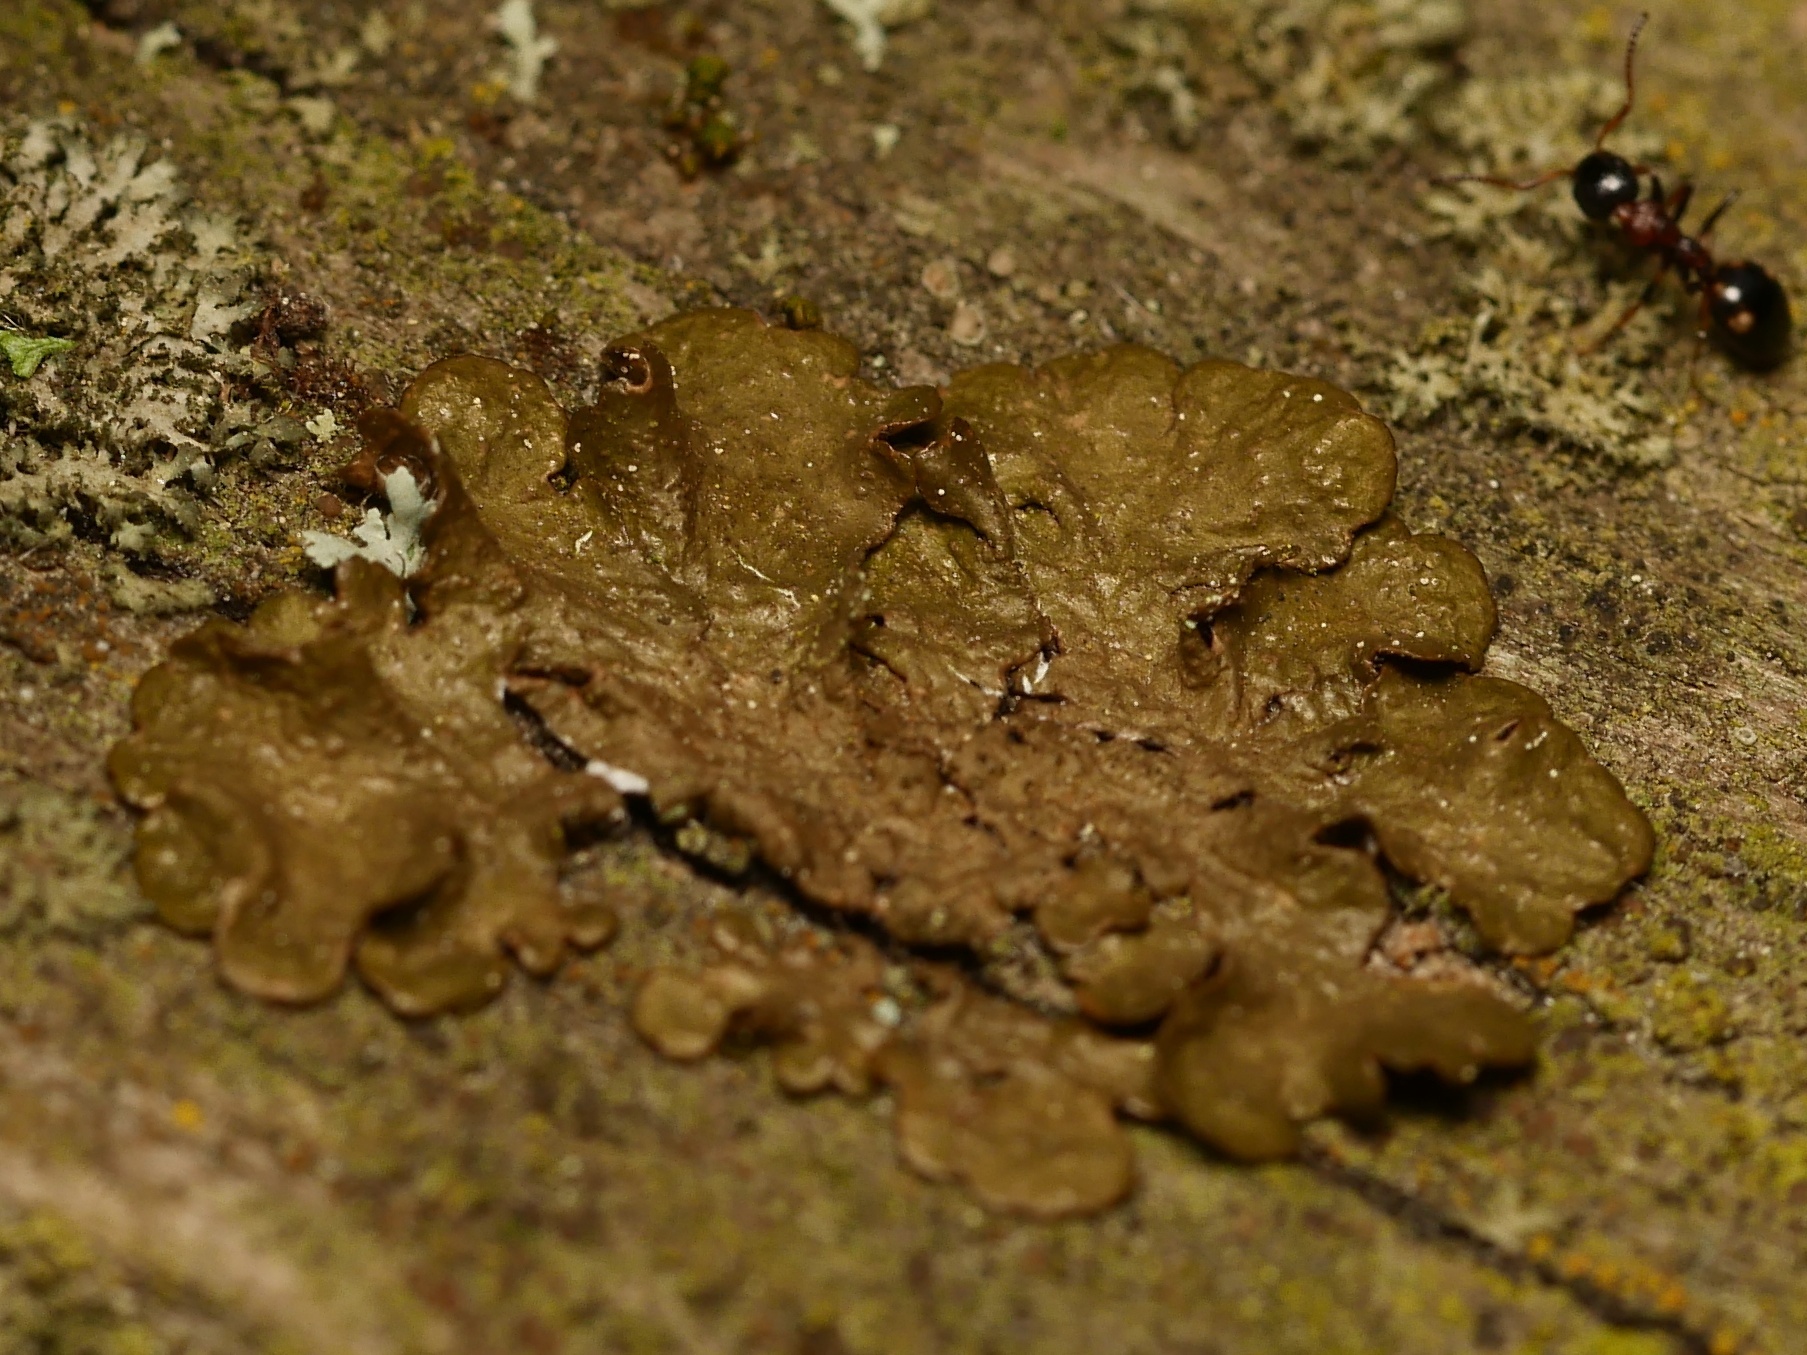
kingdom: Animalia
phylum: Arthropoda
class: Insecta
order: Hymenoptera
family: Formicidae
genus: Dolichoderus
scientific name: Dolichoderus quadripunctatus
